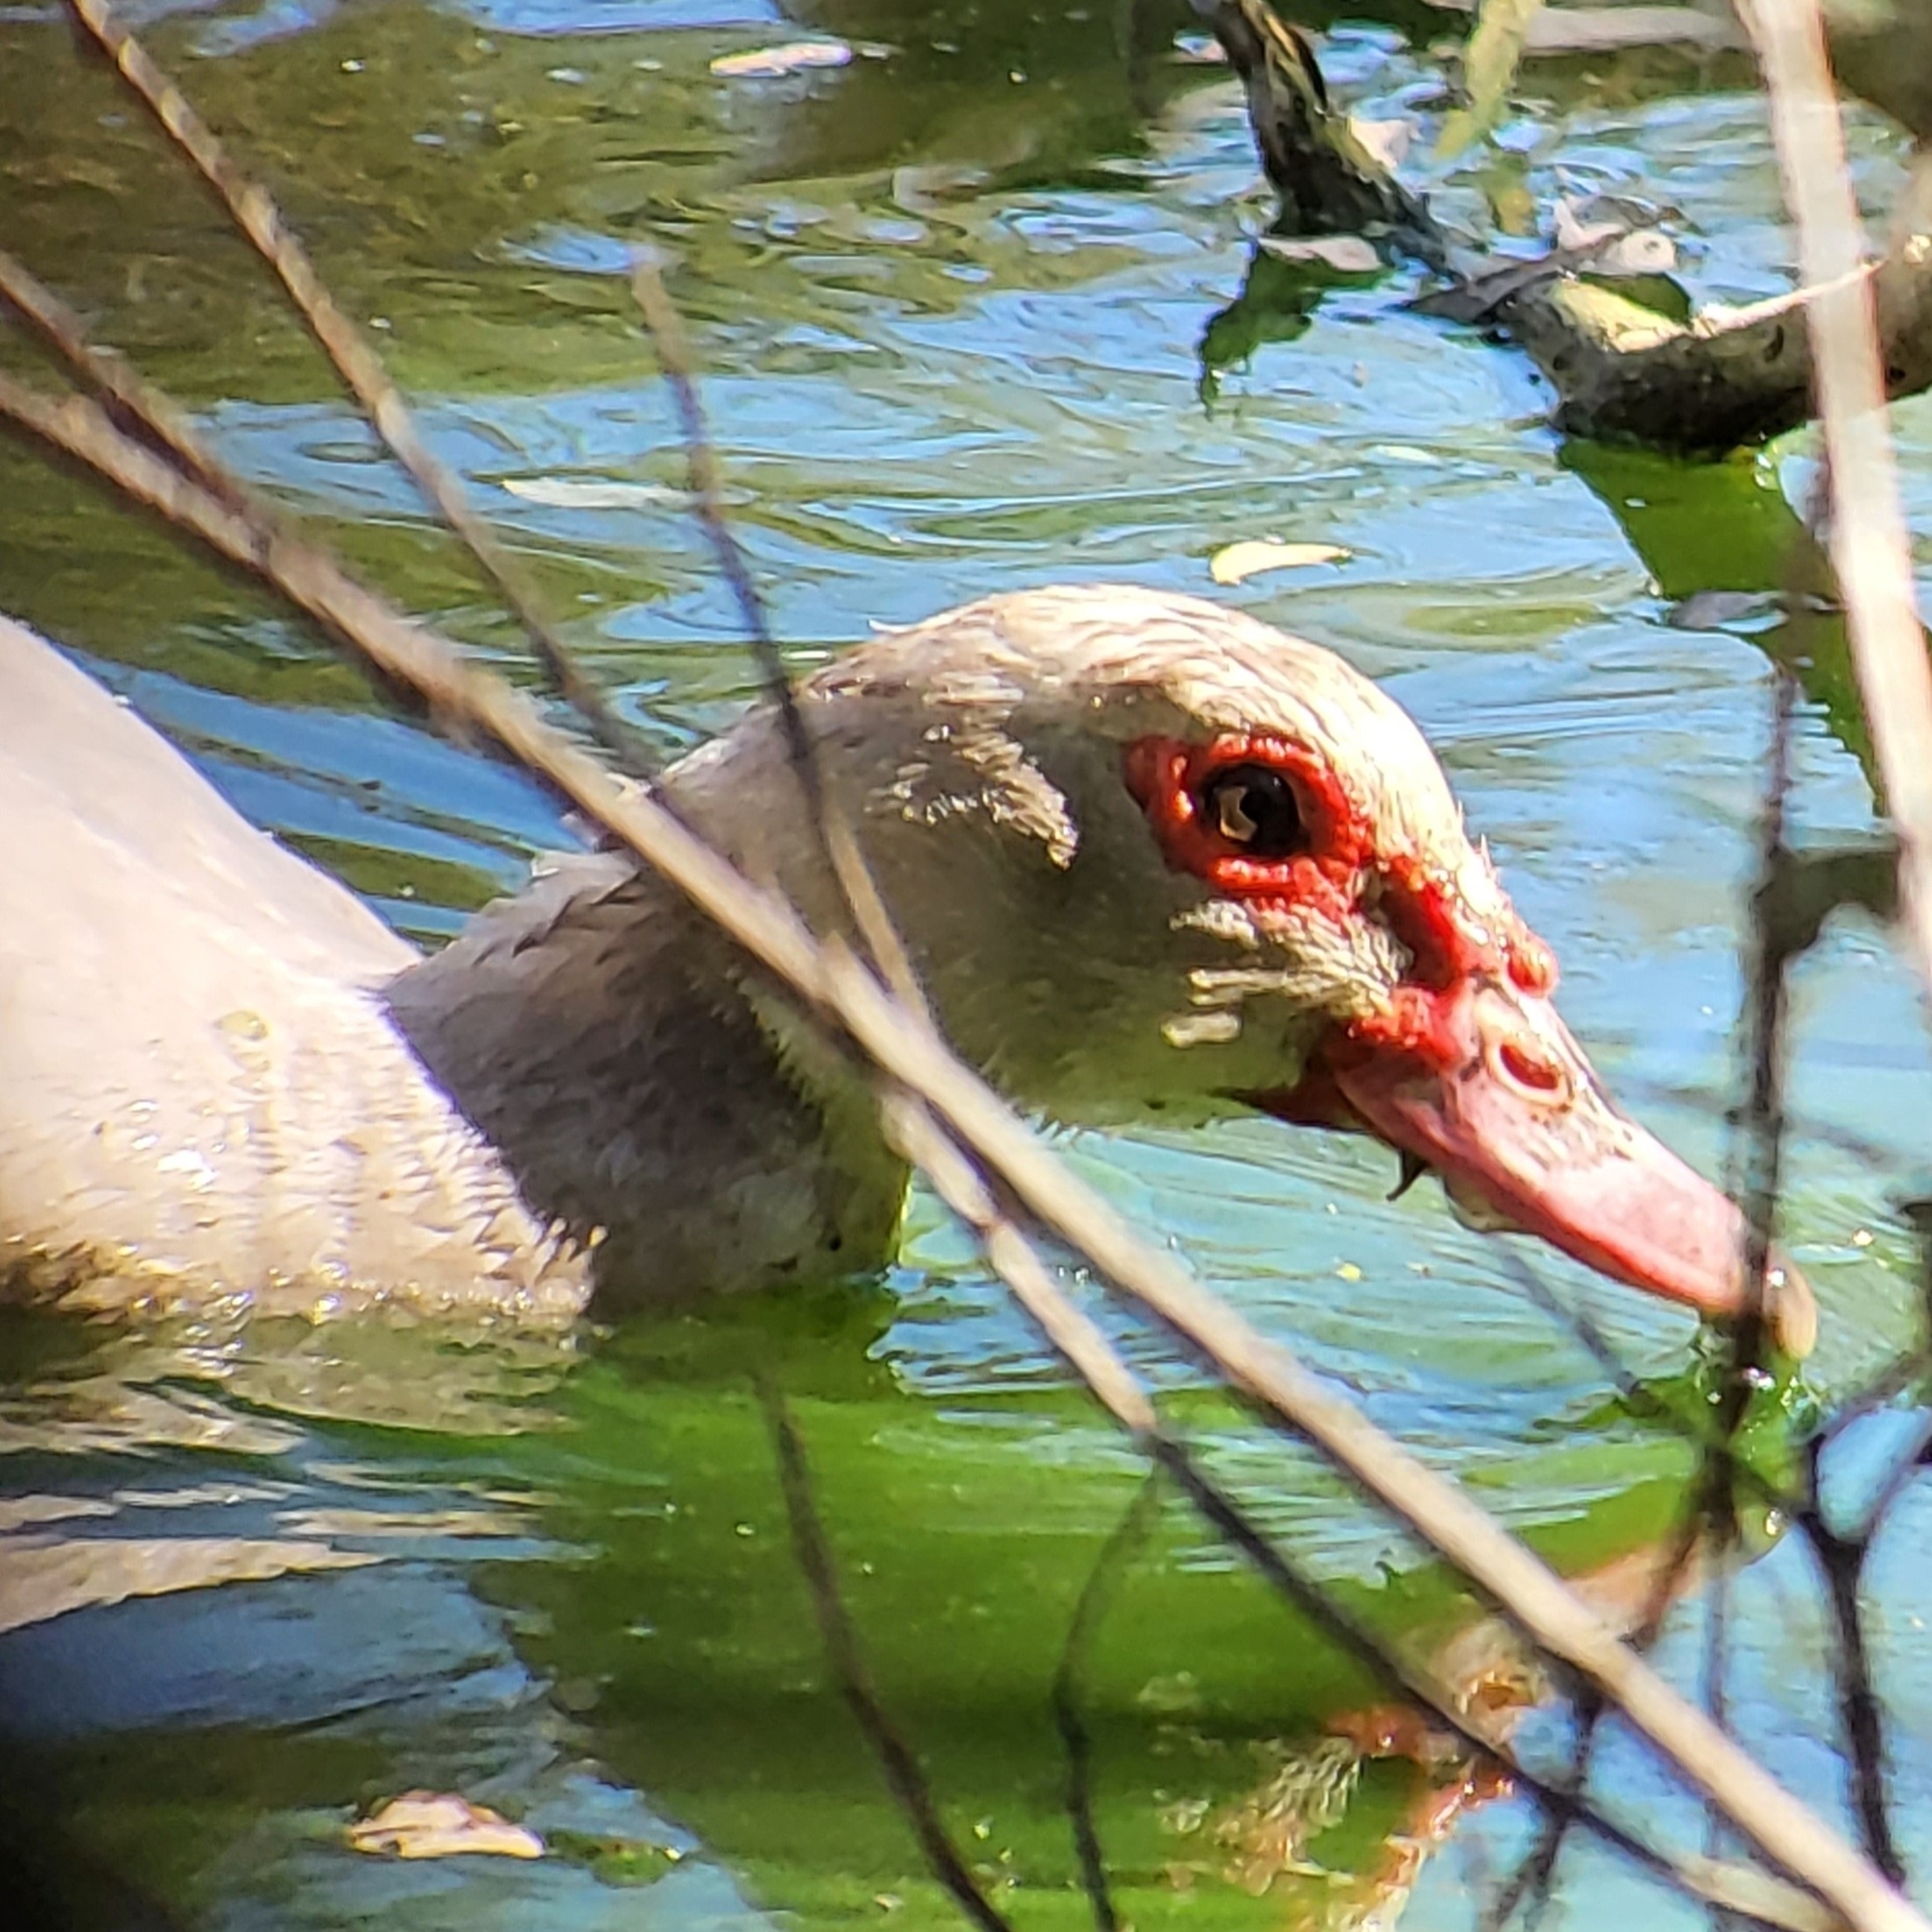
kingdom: Animalia
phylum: Chordata
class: Aves
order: Anseriformes
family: Anatidae
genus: Cairina
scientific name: Cairina moschata
